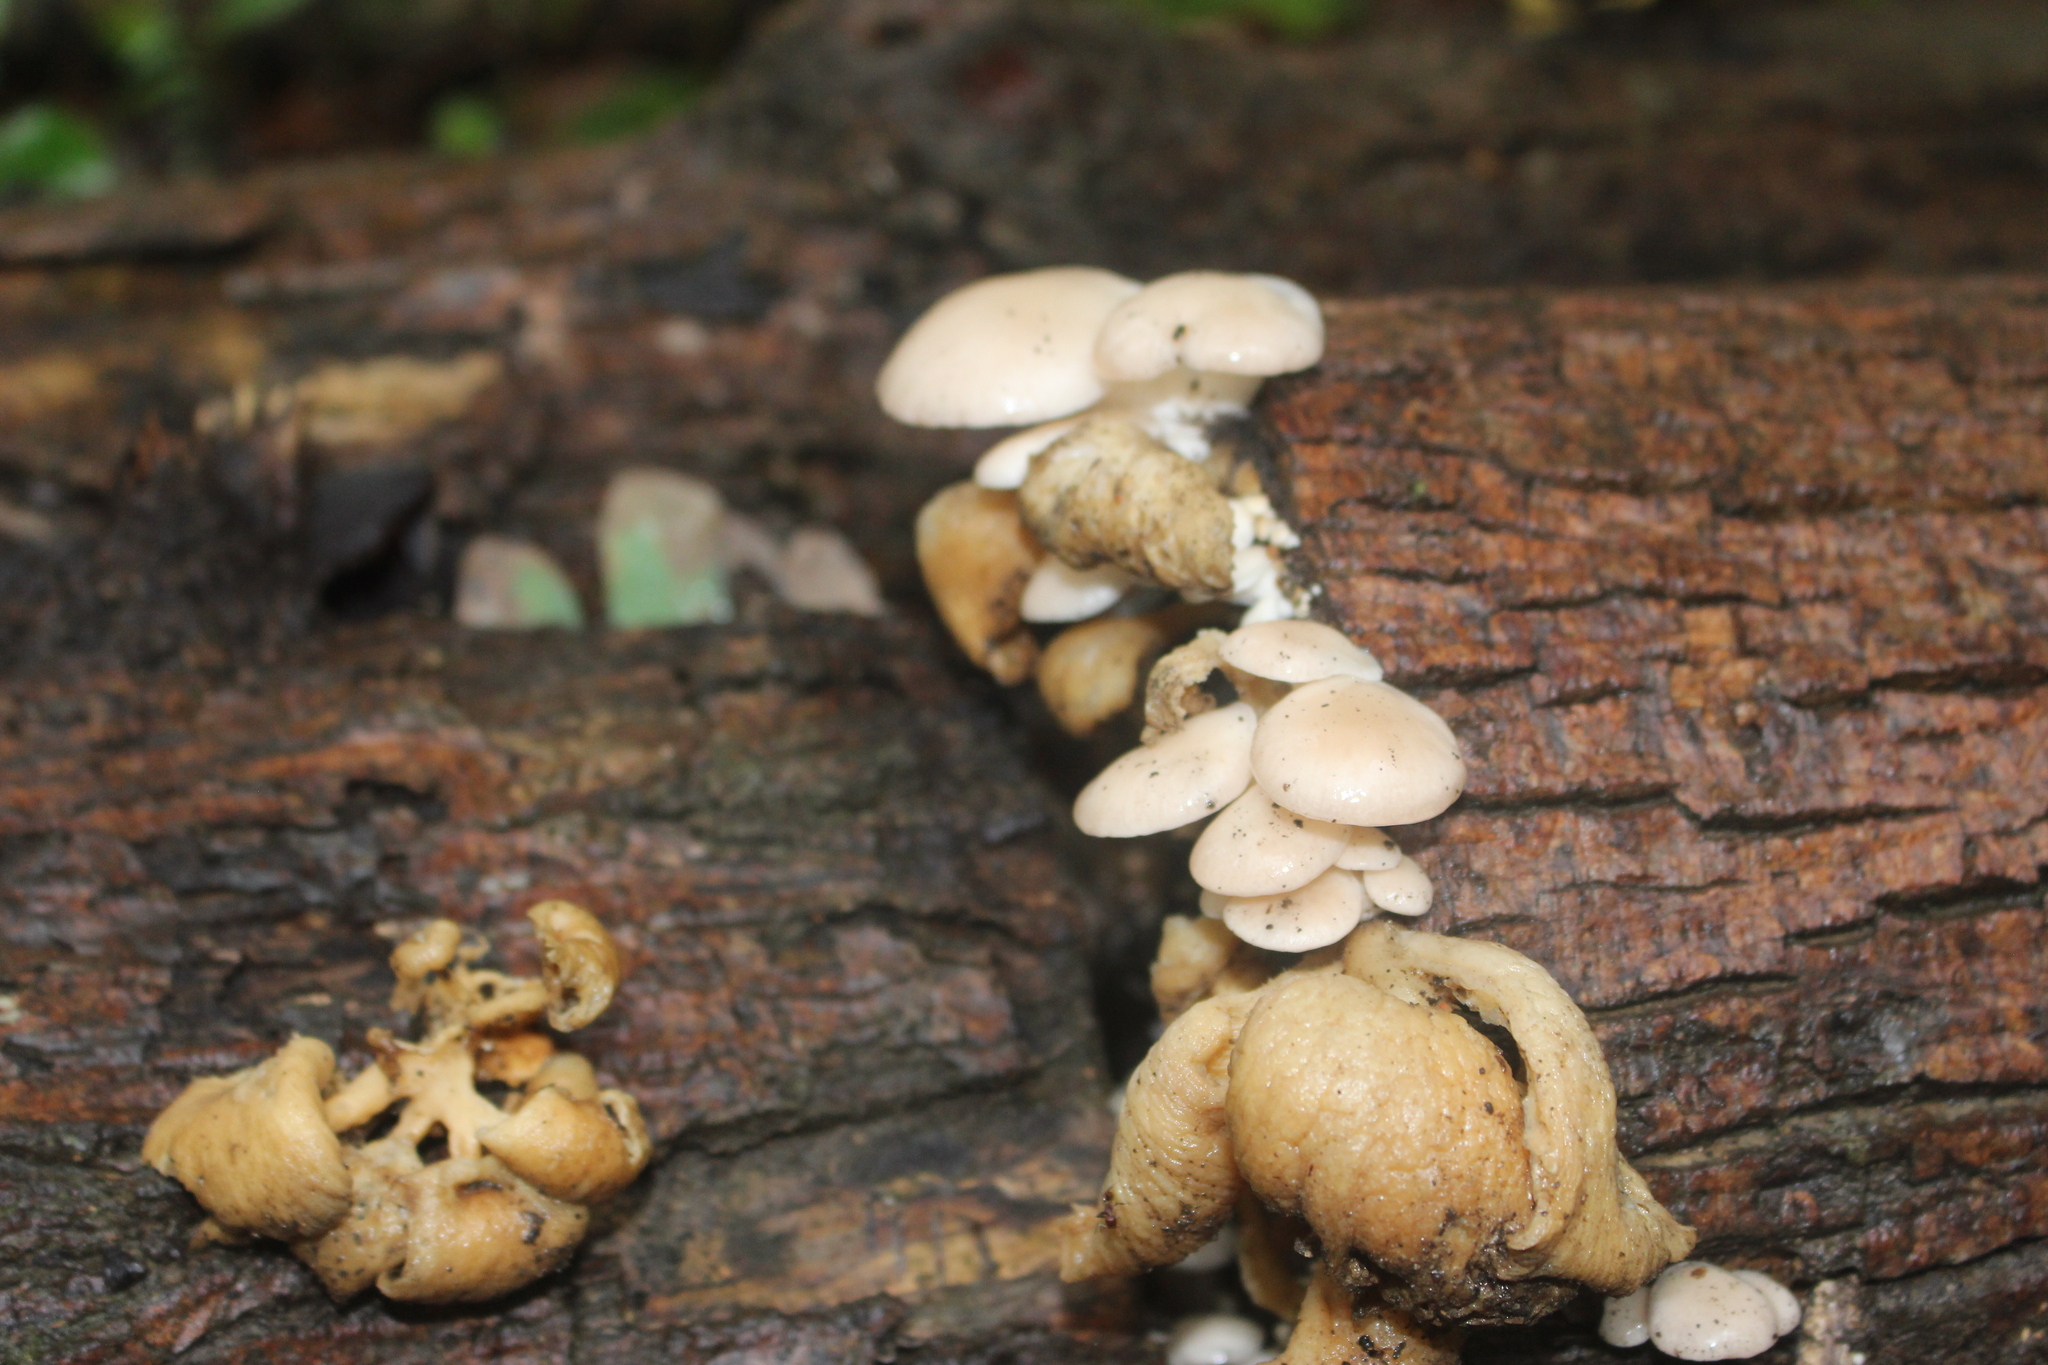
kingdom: Fungi
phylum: Basidiomycota
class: Agaricomycetes
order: Agaricales
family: Pleurotaceae
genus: Pleurotus
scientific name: Pleurotus pulmonarius
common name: Pale oyster
